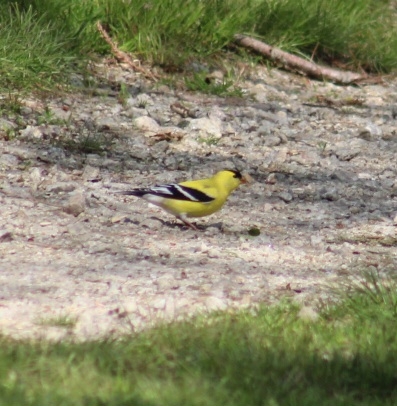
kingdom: Animalia
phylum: Chordata
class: Aves
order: Passeriformes
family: Fringillidae
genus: Spinus
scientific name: Spinus tristis
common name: American goldfinch
